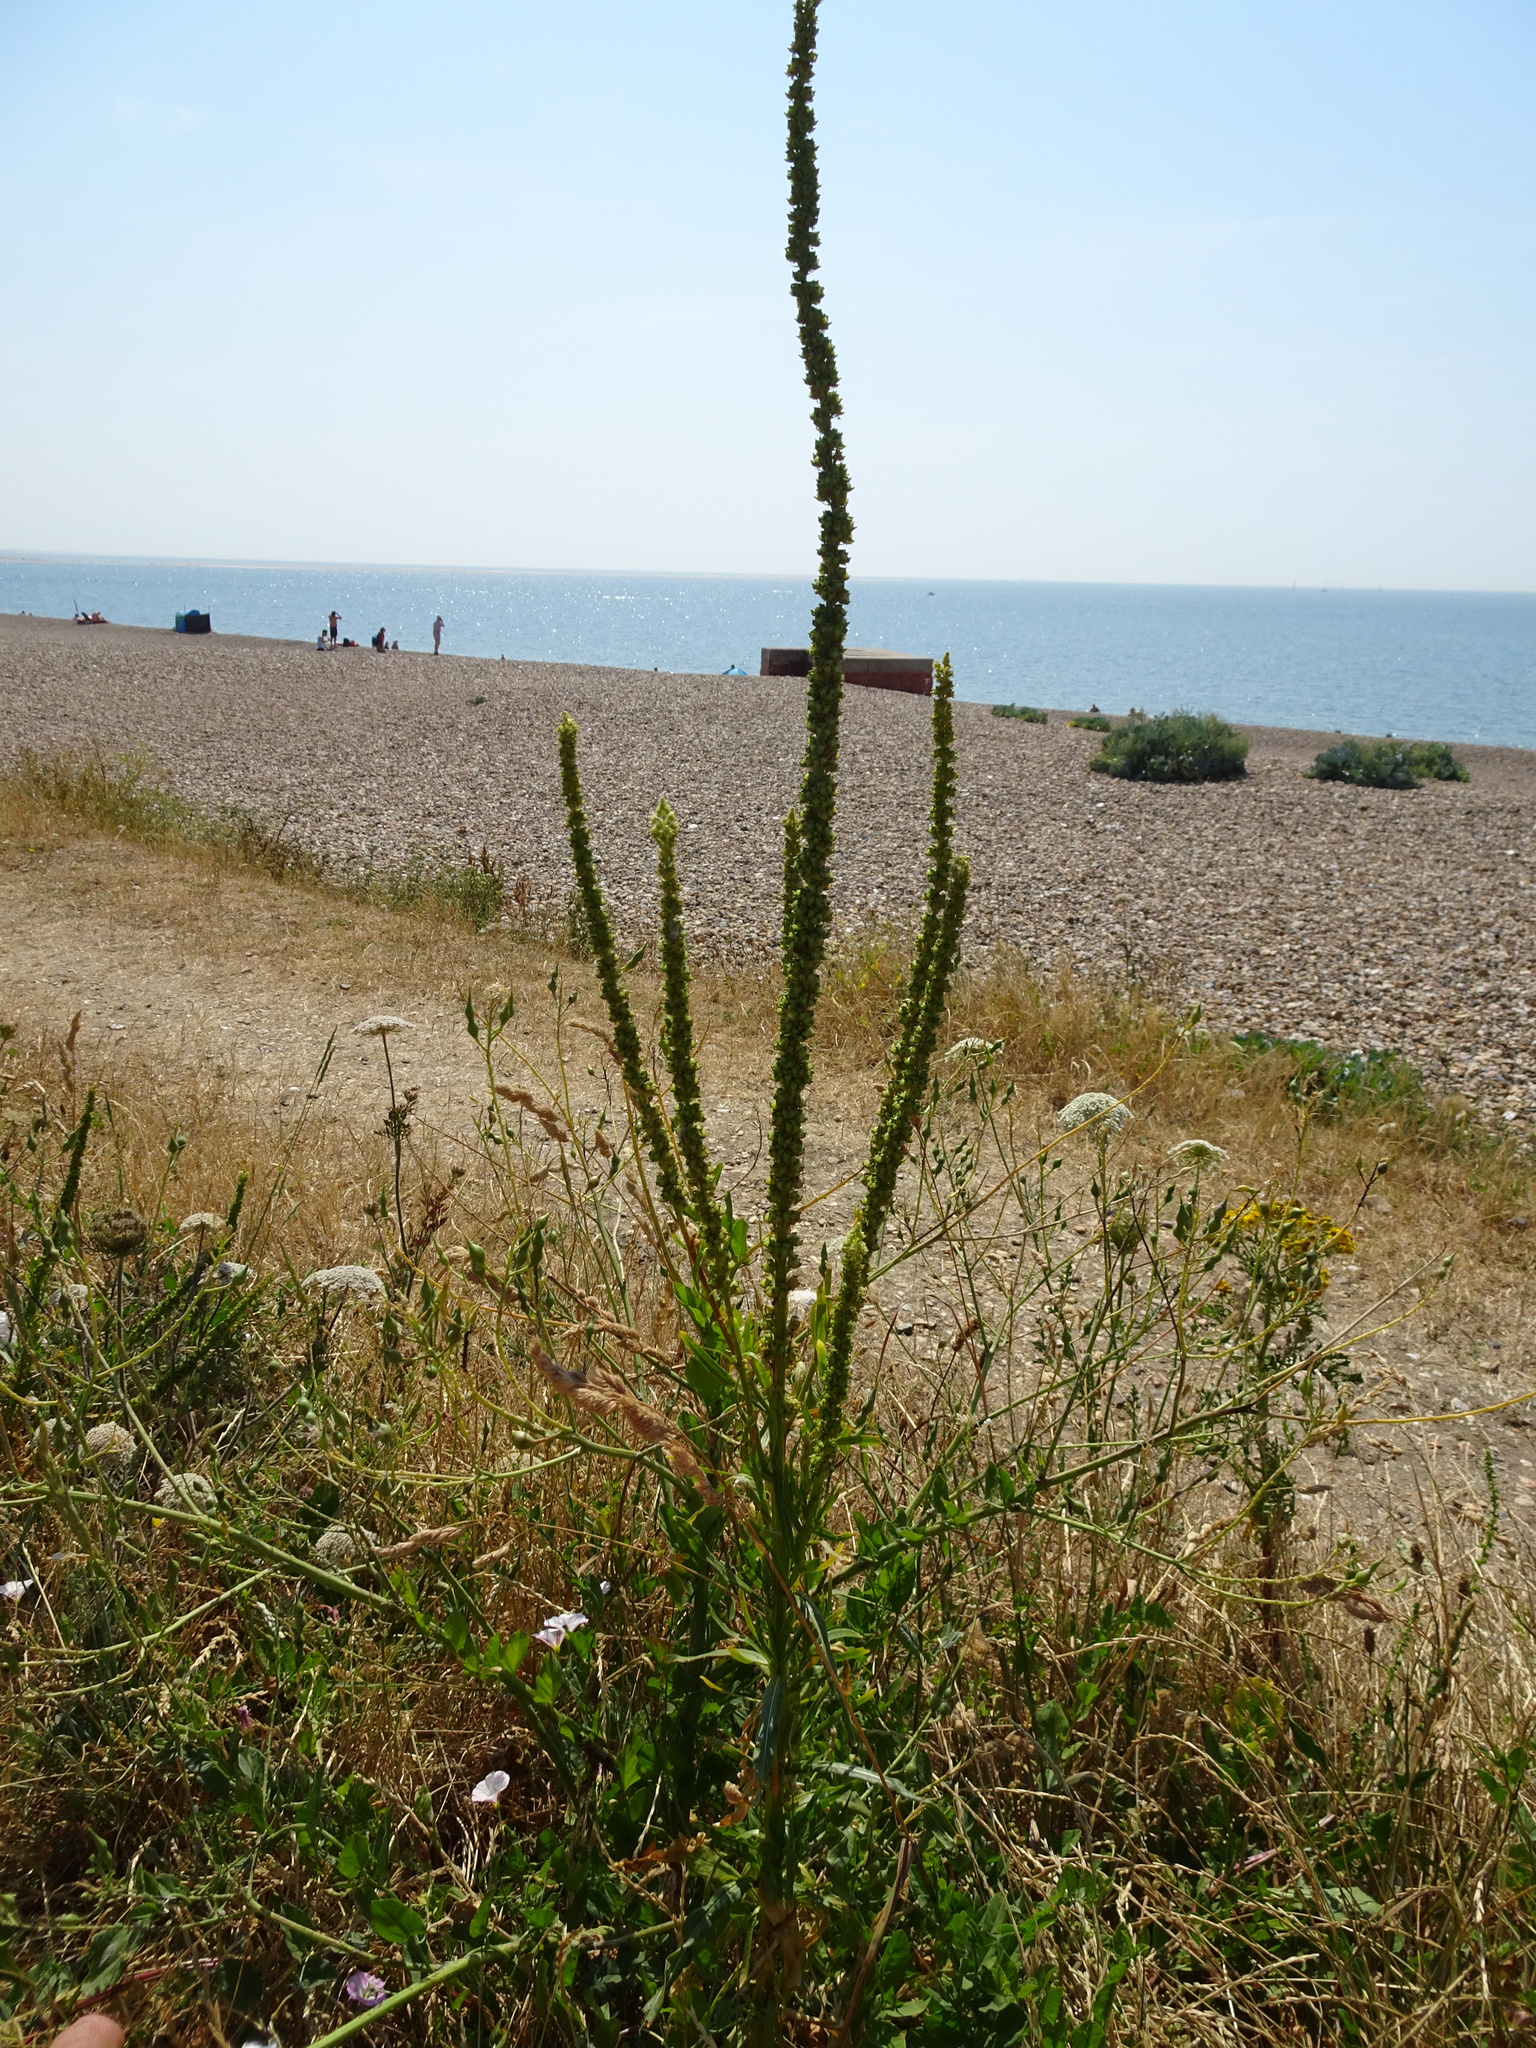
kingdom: Plantae
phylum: Tracheophyta
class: Magnoliopsida
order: Brassicales
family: Resedaceae
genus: Reseda
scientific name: Reseda luteola
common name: Weld
